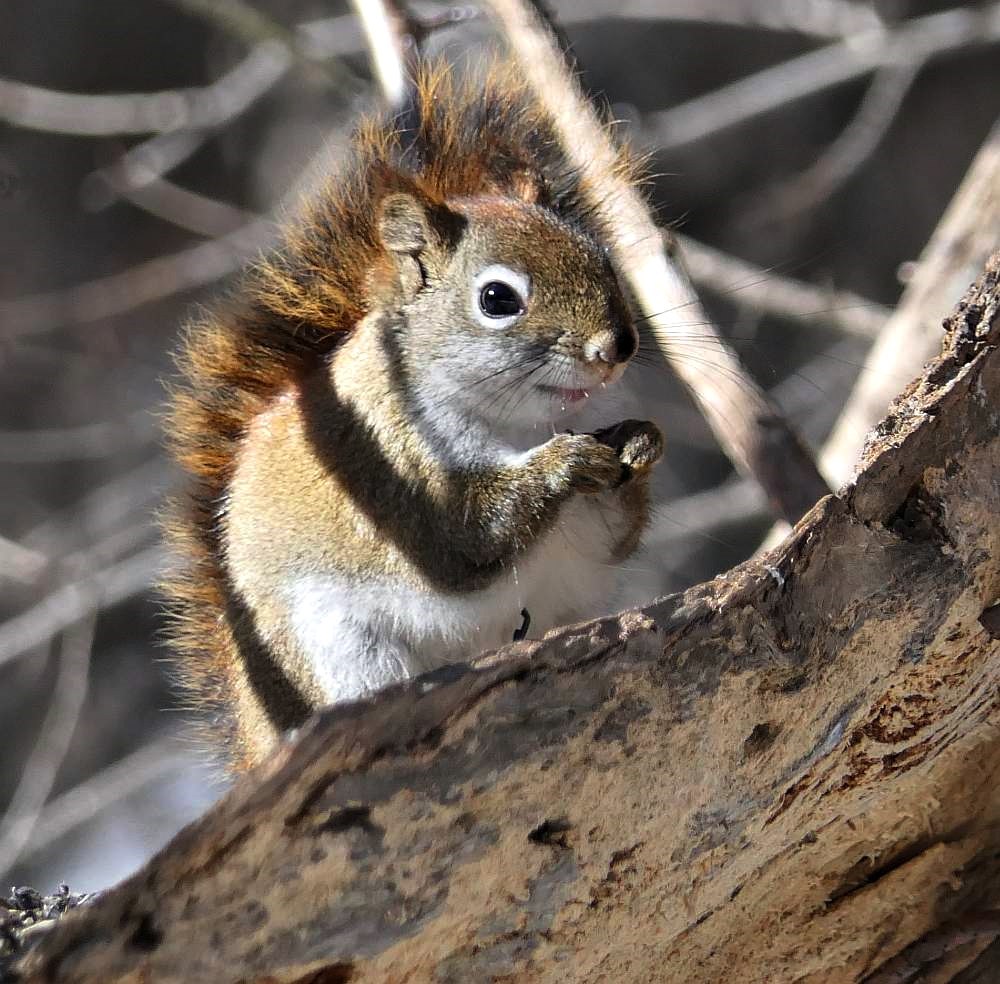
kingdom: Animalia
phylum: Chordata
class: Mammalia
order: Rodentia
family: Sciuridae
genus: Tamiasciurus
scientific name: Tamiasciurus hudsonicus
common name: Red squirrel
